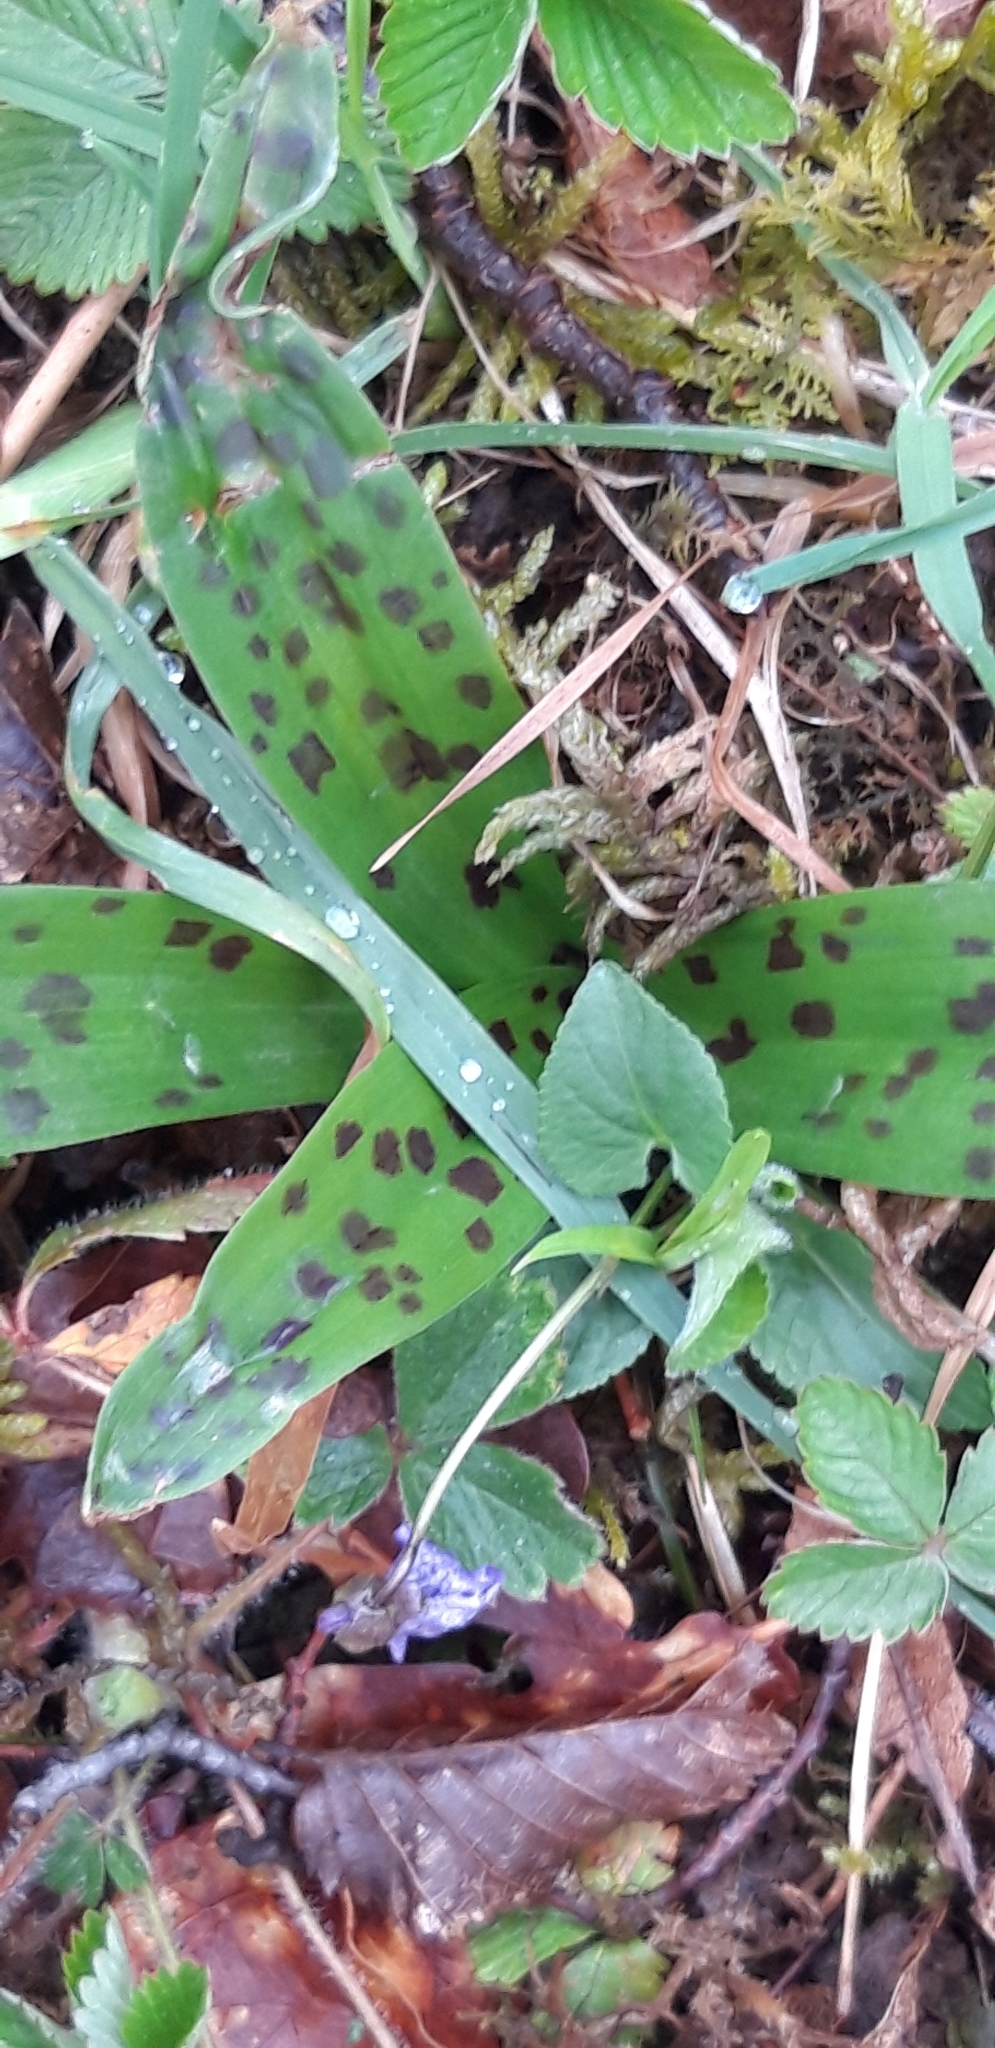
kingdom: Plantae
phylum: Tracheophyta
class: Liliopsida
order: Asparagales
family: Orchidaceae
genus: Orchis
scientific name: Orchis mascula
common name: Early-purple orchid
